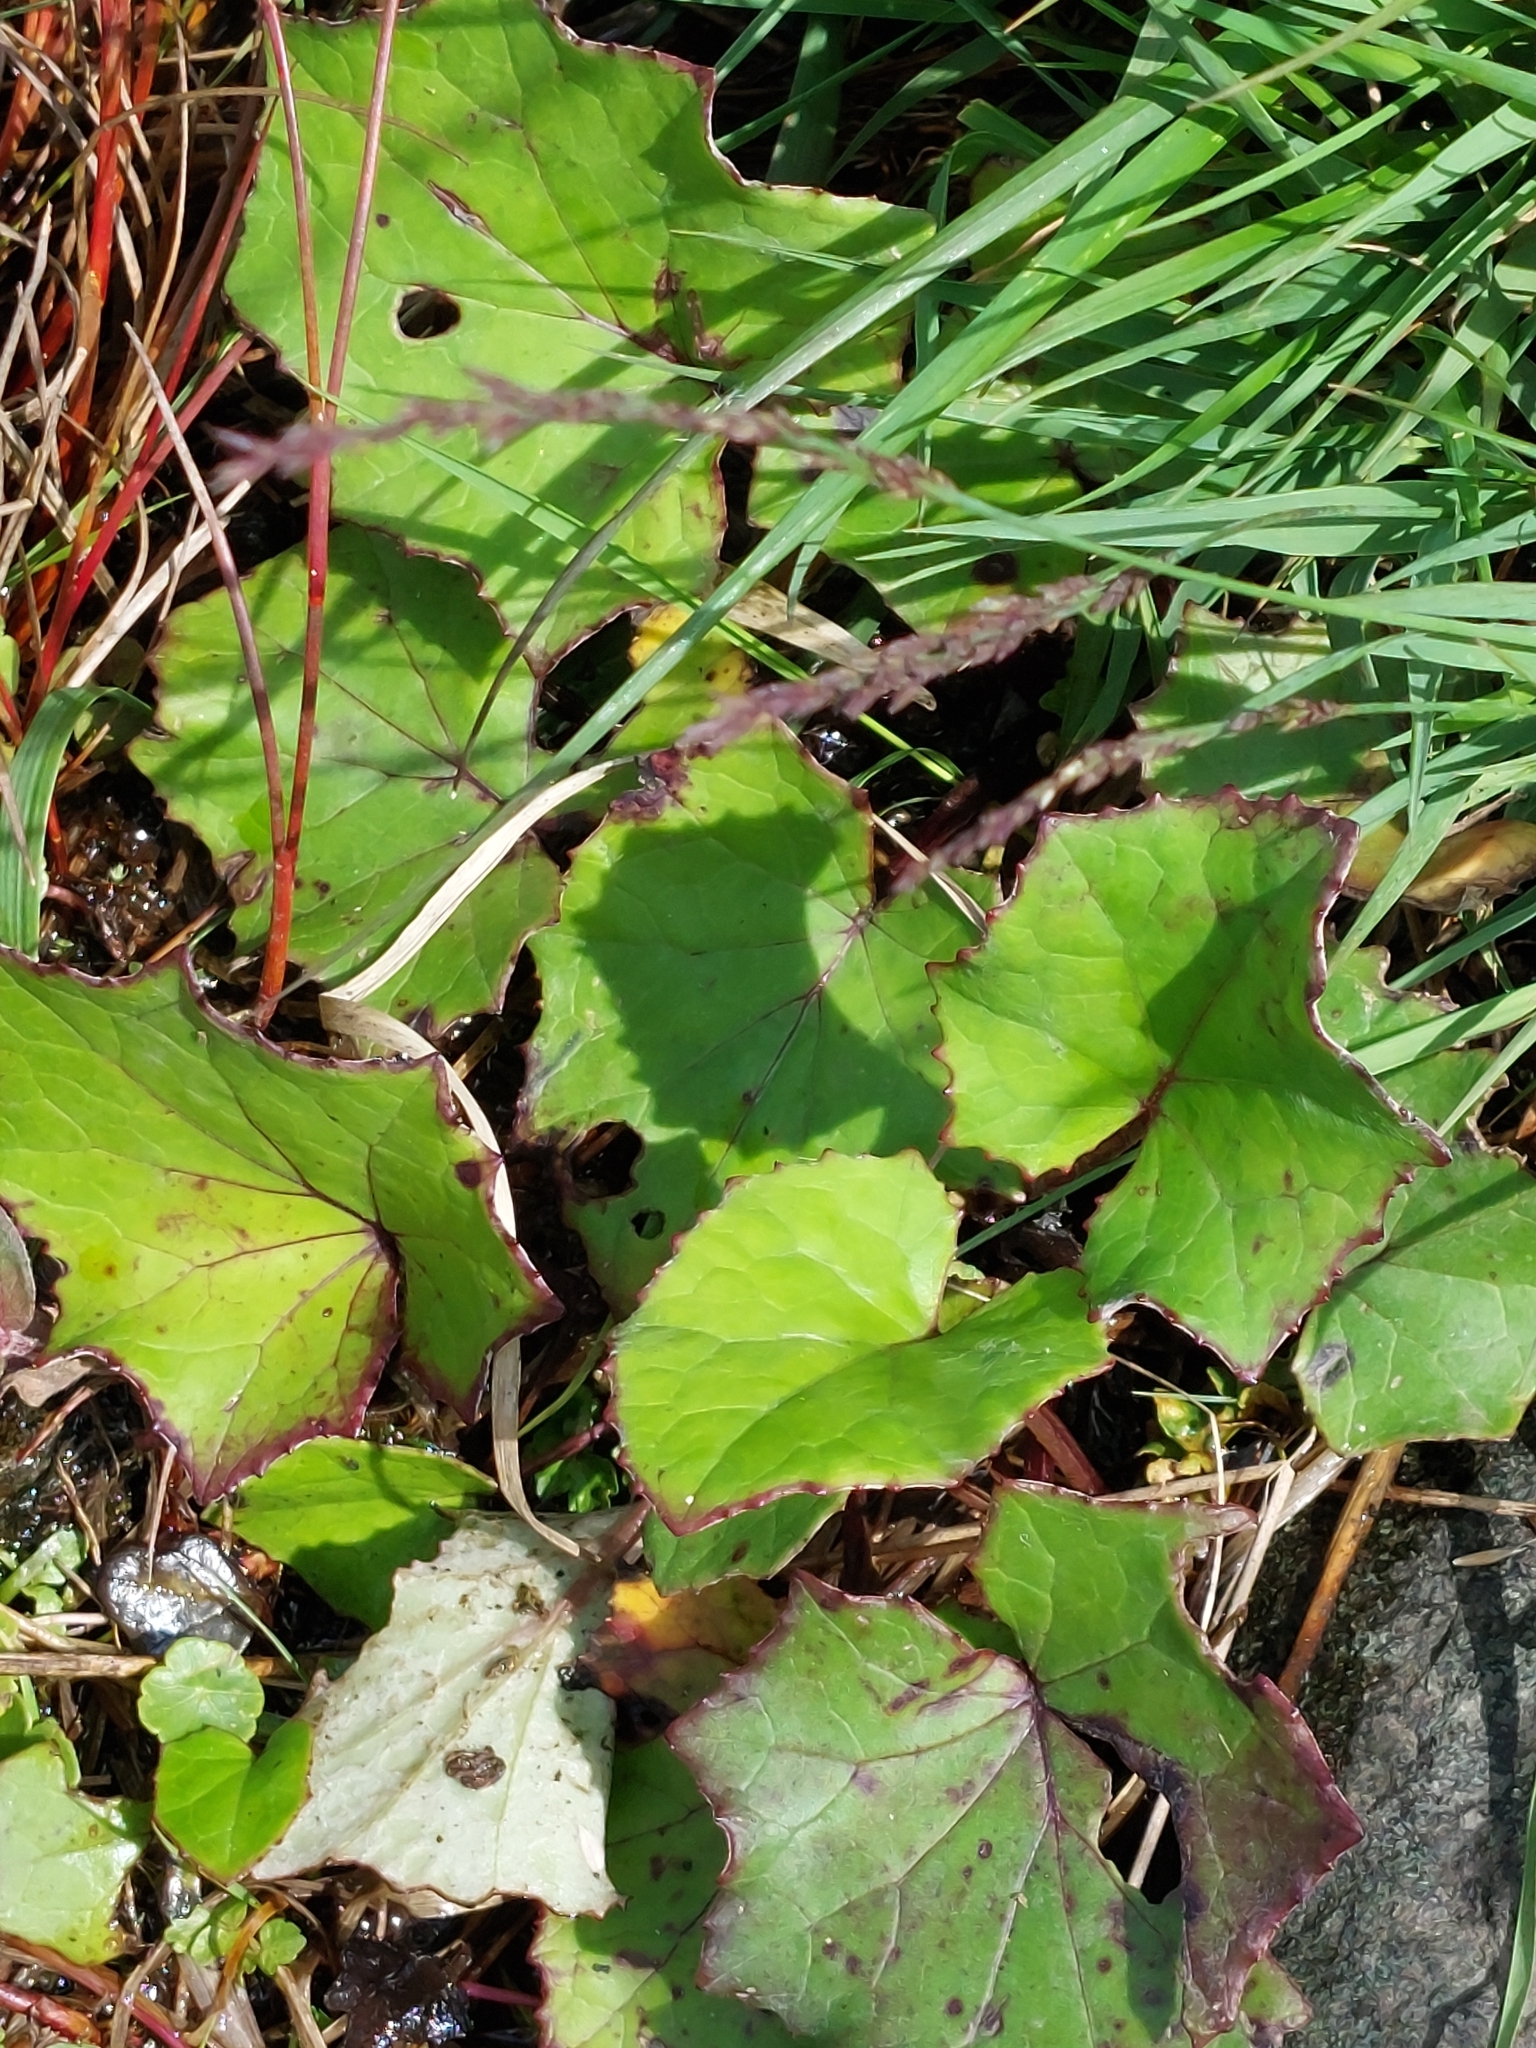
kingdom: Plantae
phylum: Tracheophyta
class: Magnoliopsida
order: Asterales
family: Asteraceae
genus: Tussilago
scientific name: Tussilago farfara
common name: Coltsfoot
